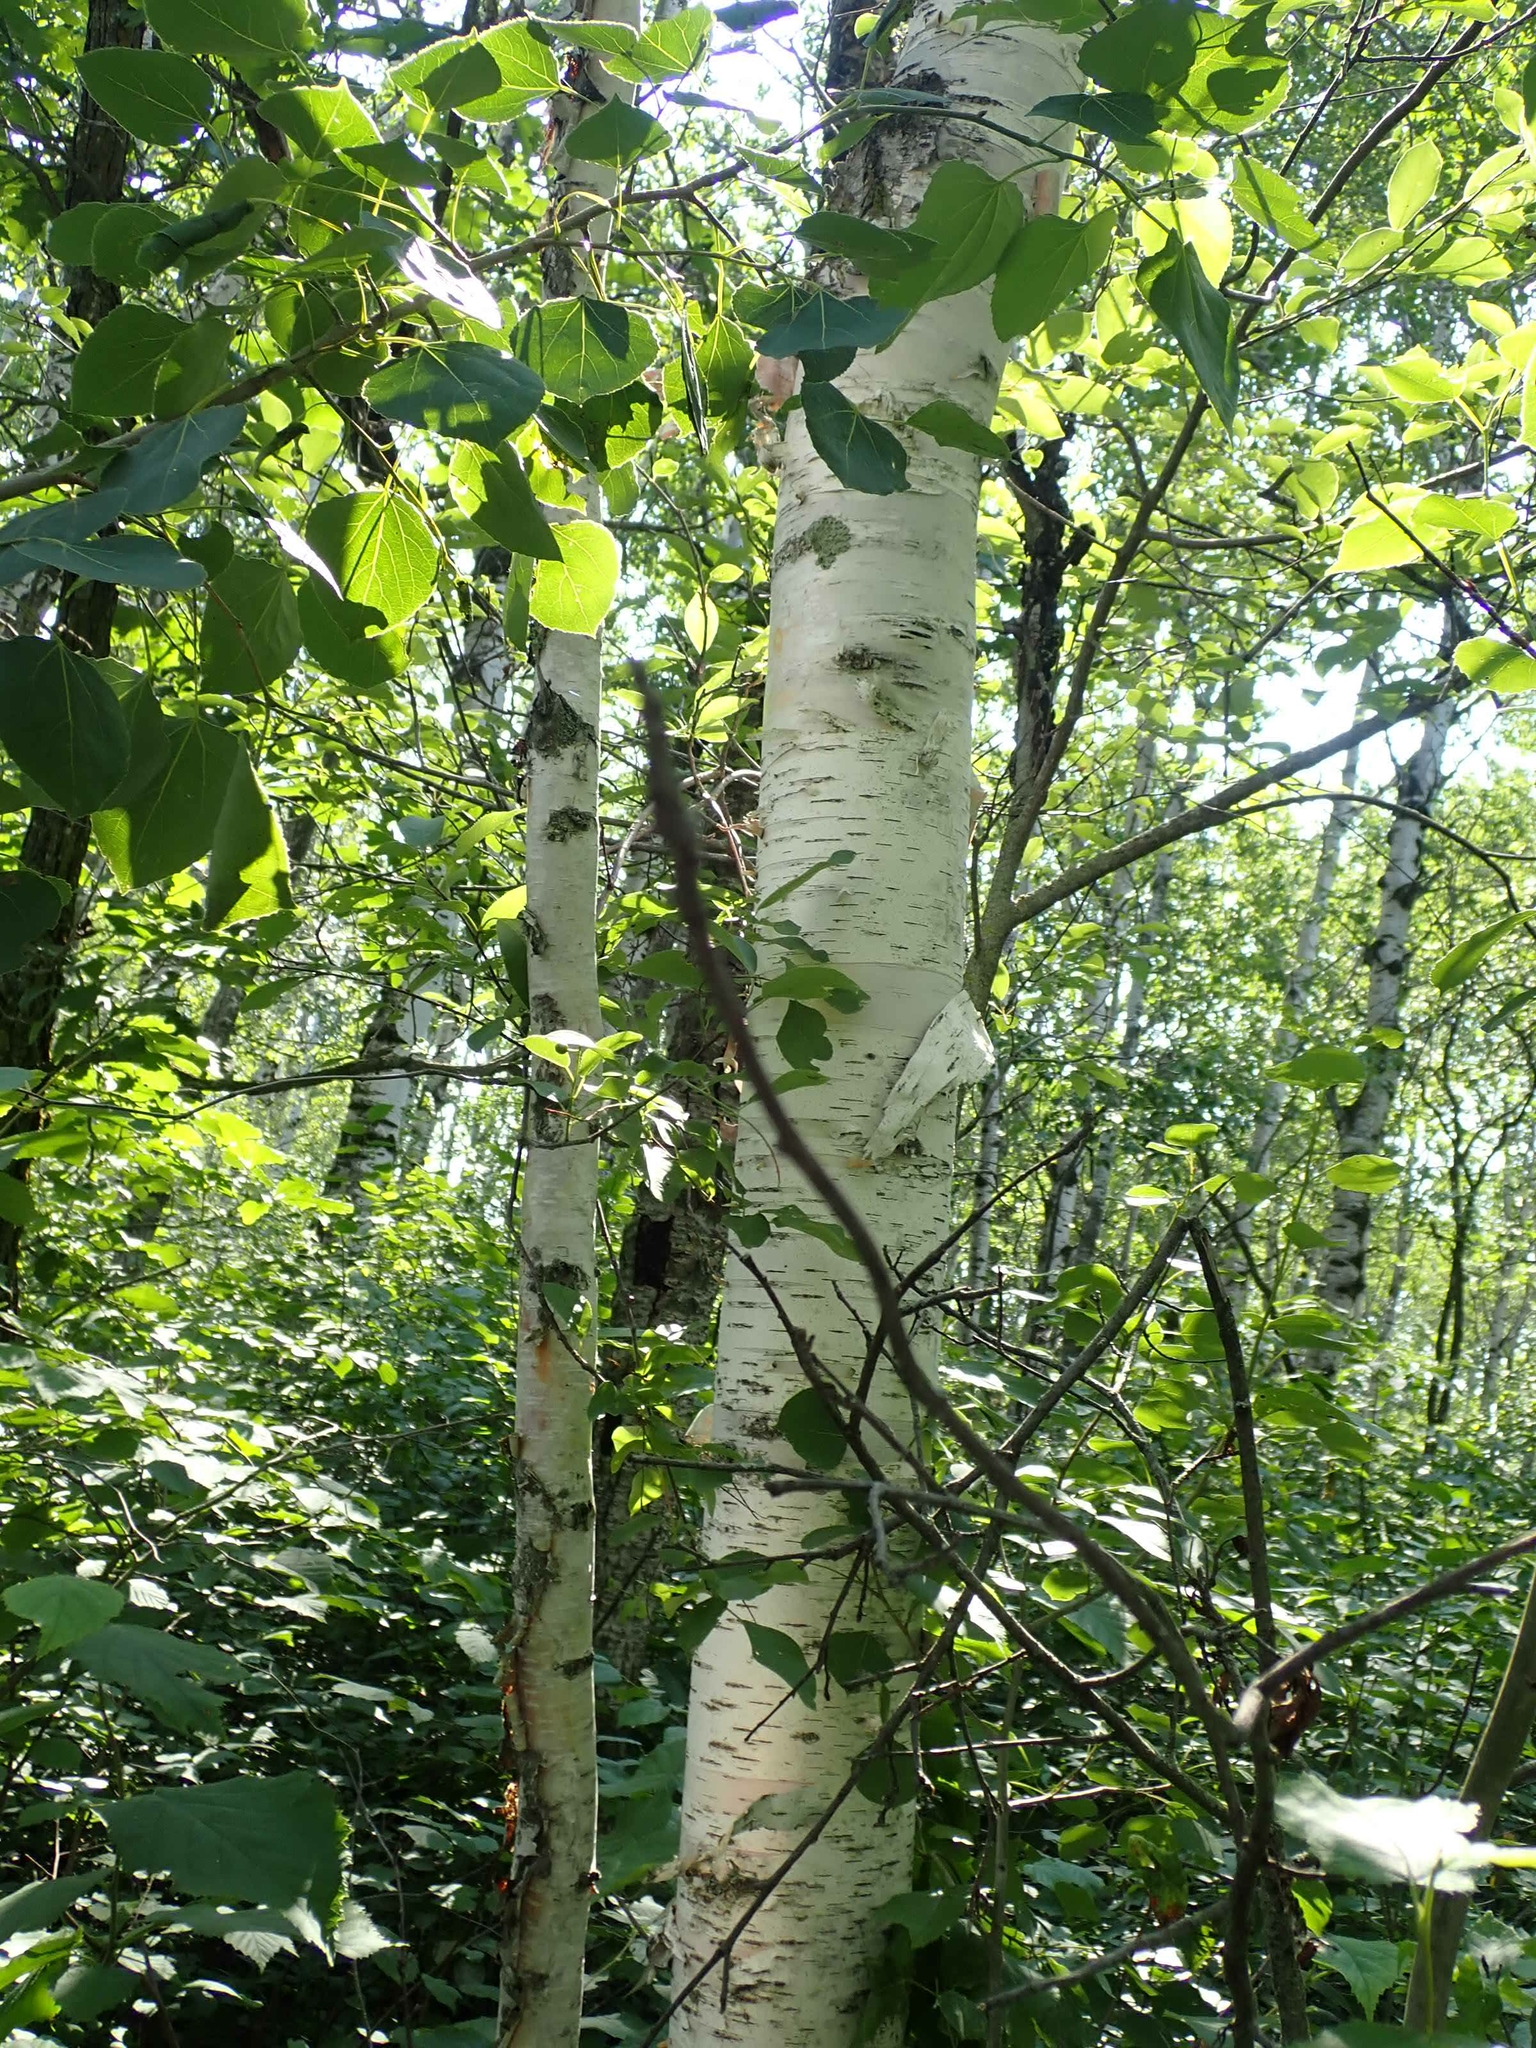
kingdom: Plantae
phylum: Tracheophyta
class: Magnoliopsida
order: Fagales
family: Betulaceae
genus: Betula
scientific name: Betula papyrifera
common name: Paper birch
